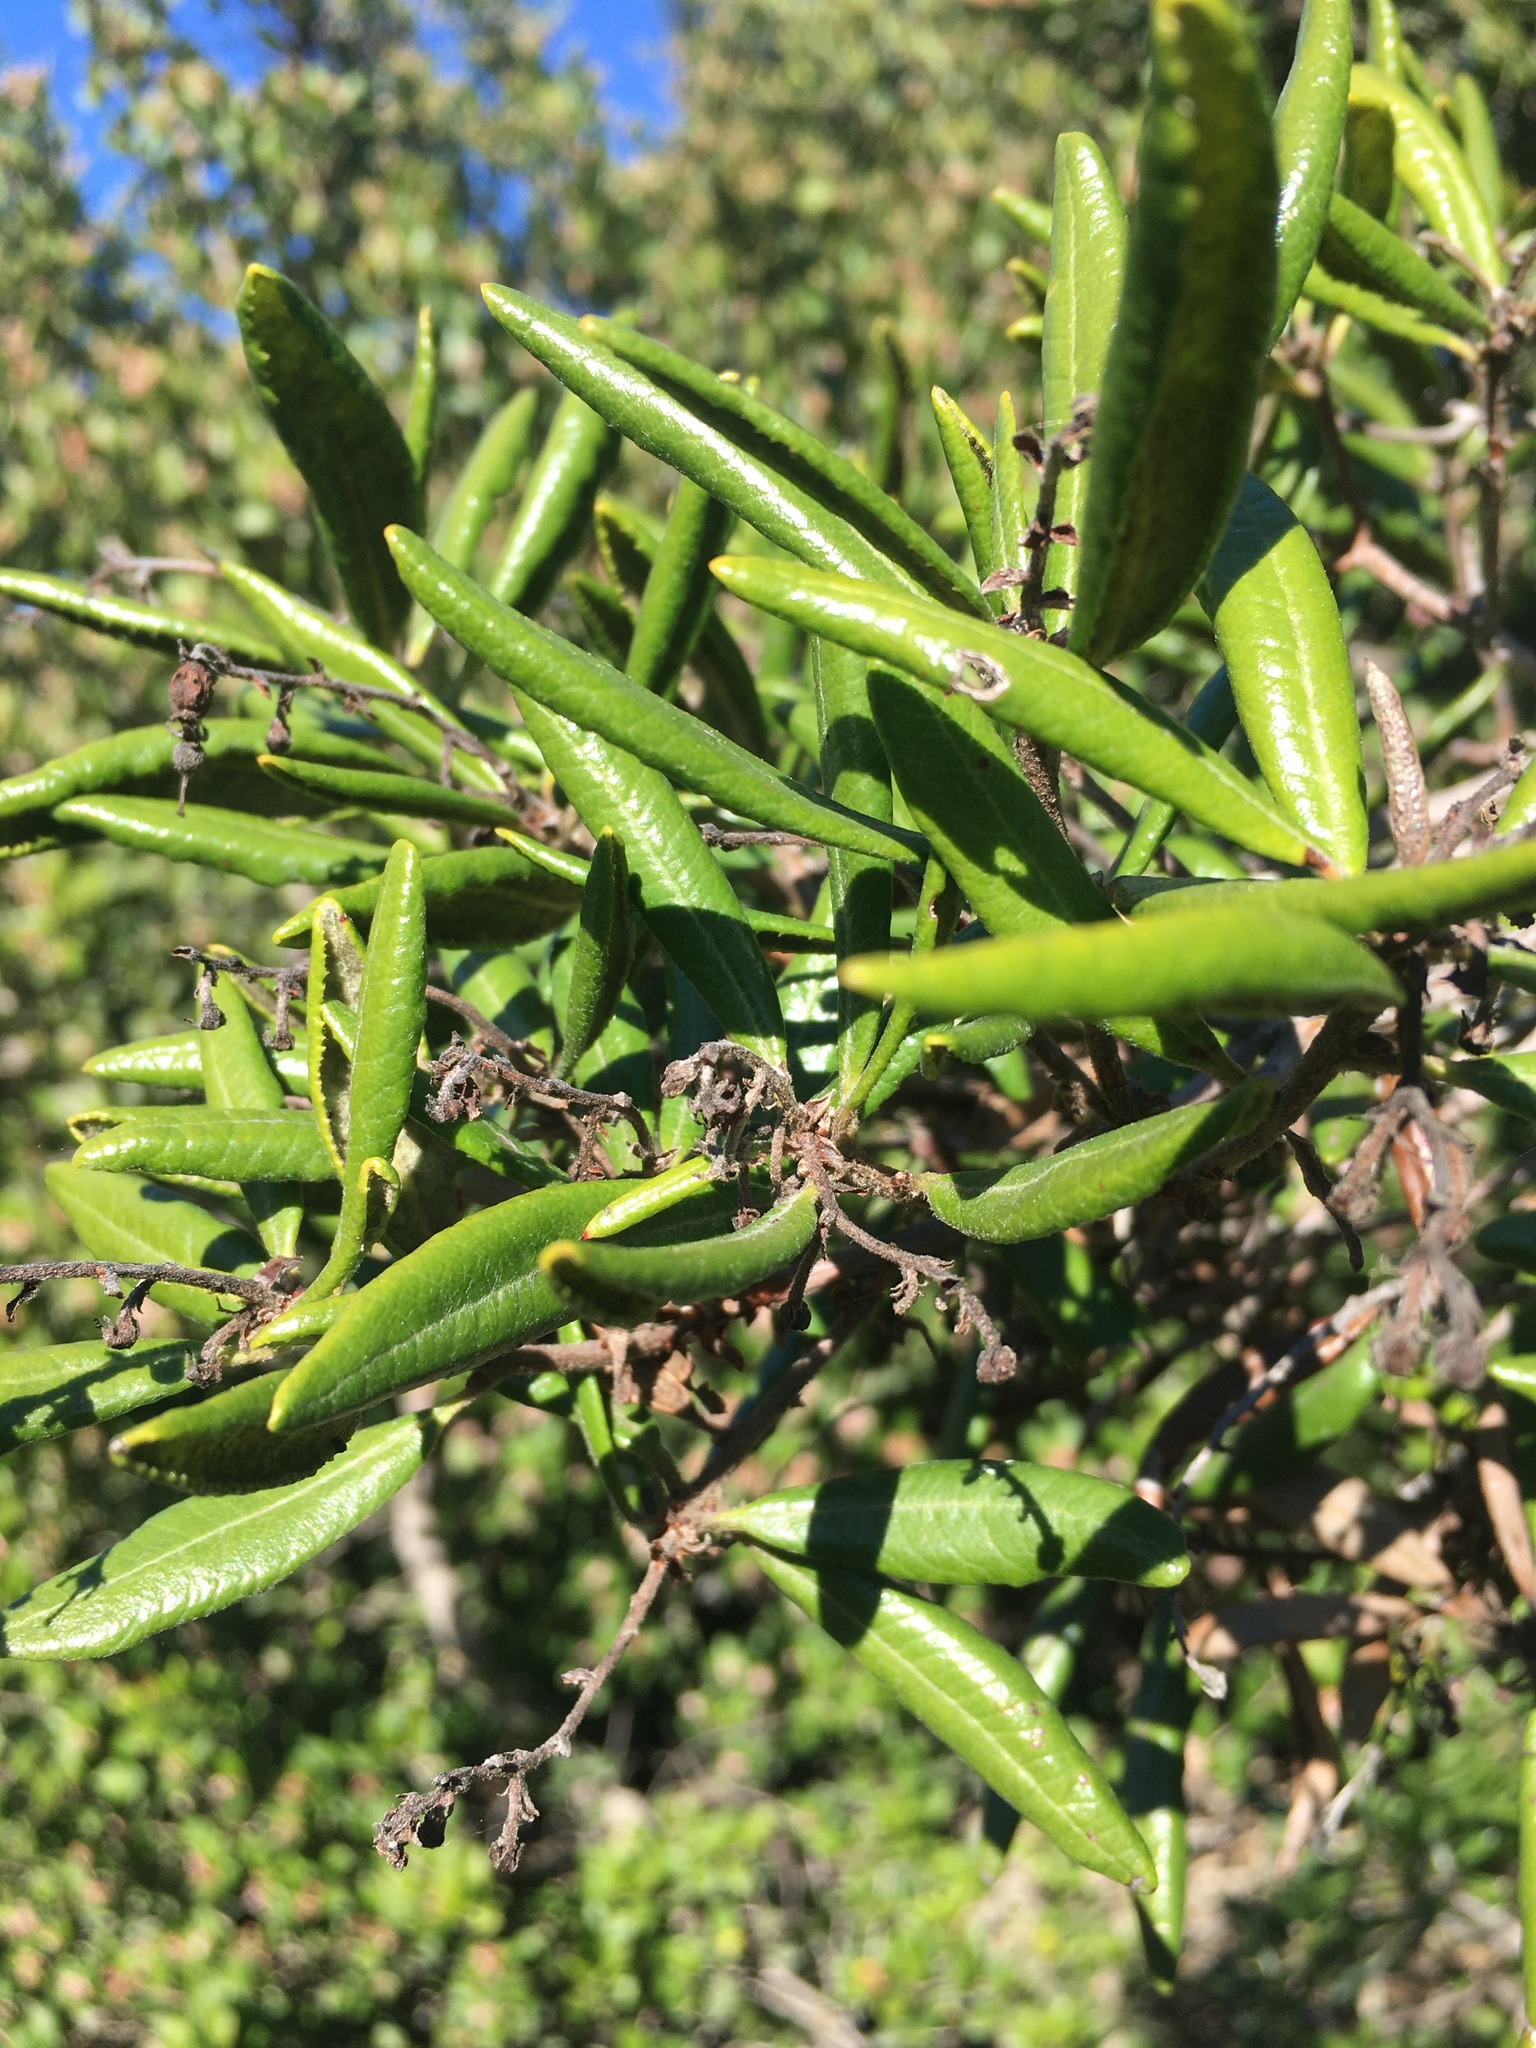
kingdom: Plantae
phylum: Tracheophyta
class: Magnoliopsida
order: Ericales
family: Ericaceae
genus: Comarostaphylis
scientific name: Comarostaphylis diversifolia
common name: Summer-holly
